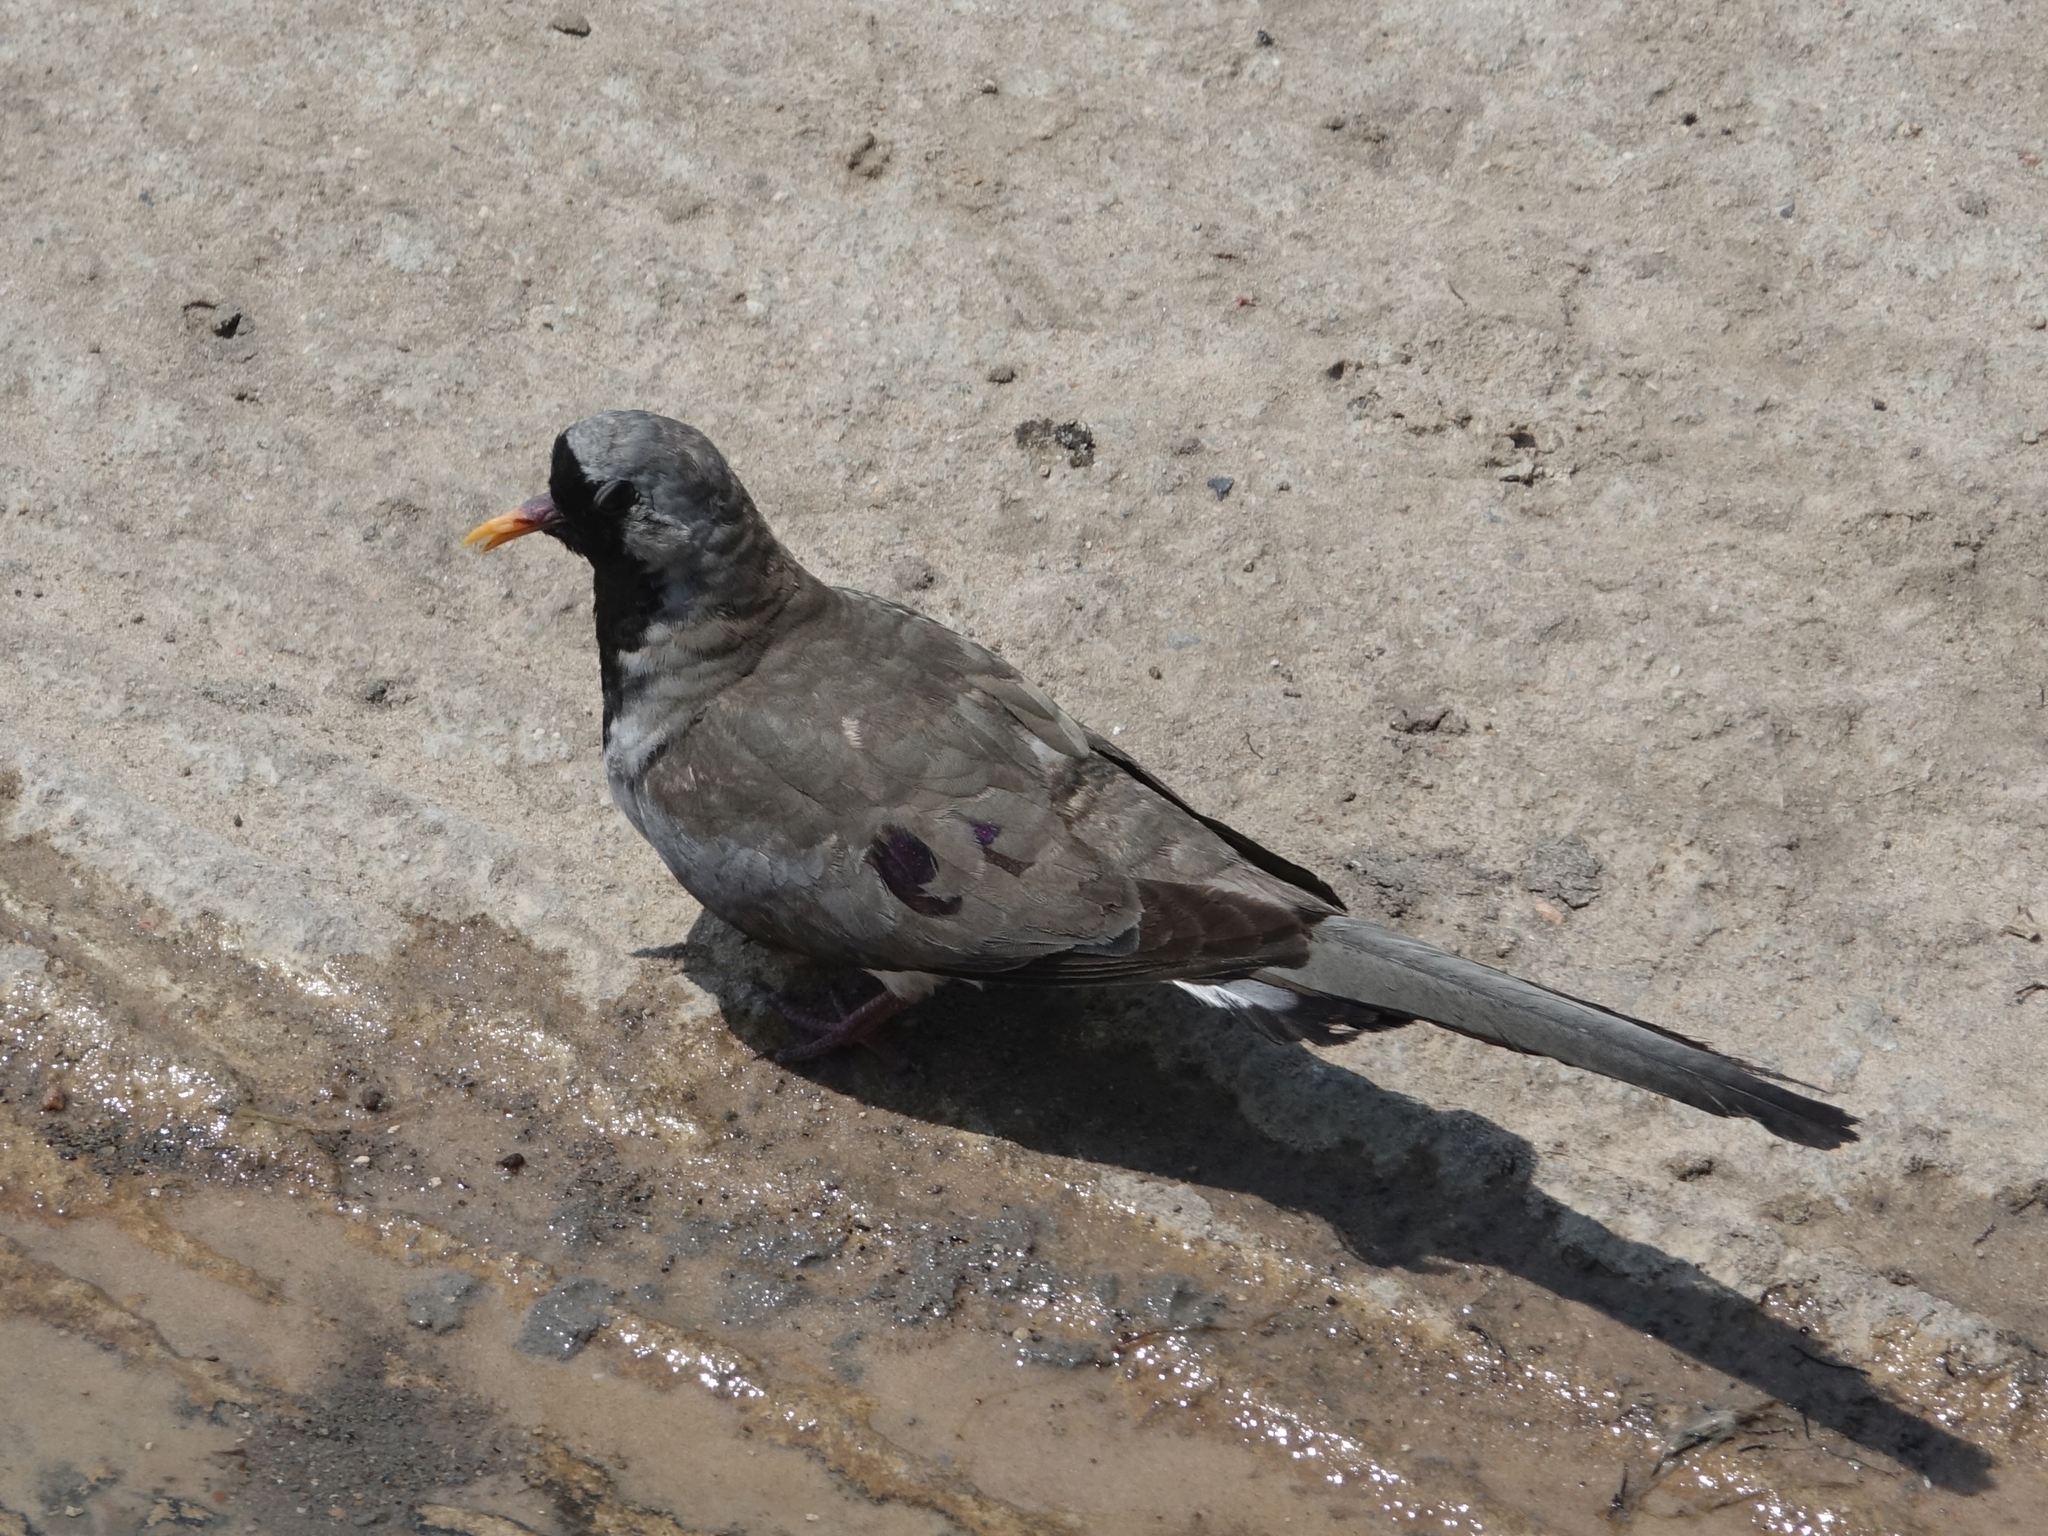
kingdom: Animalia
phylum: Chordata
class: Aves
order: Columbiformes
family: Columbidae
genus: Oena
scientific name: Oena capensis
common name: Namaqua dove
